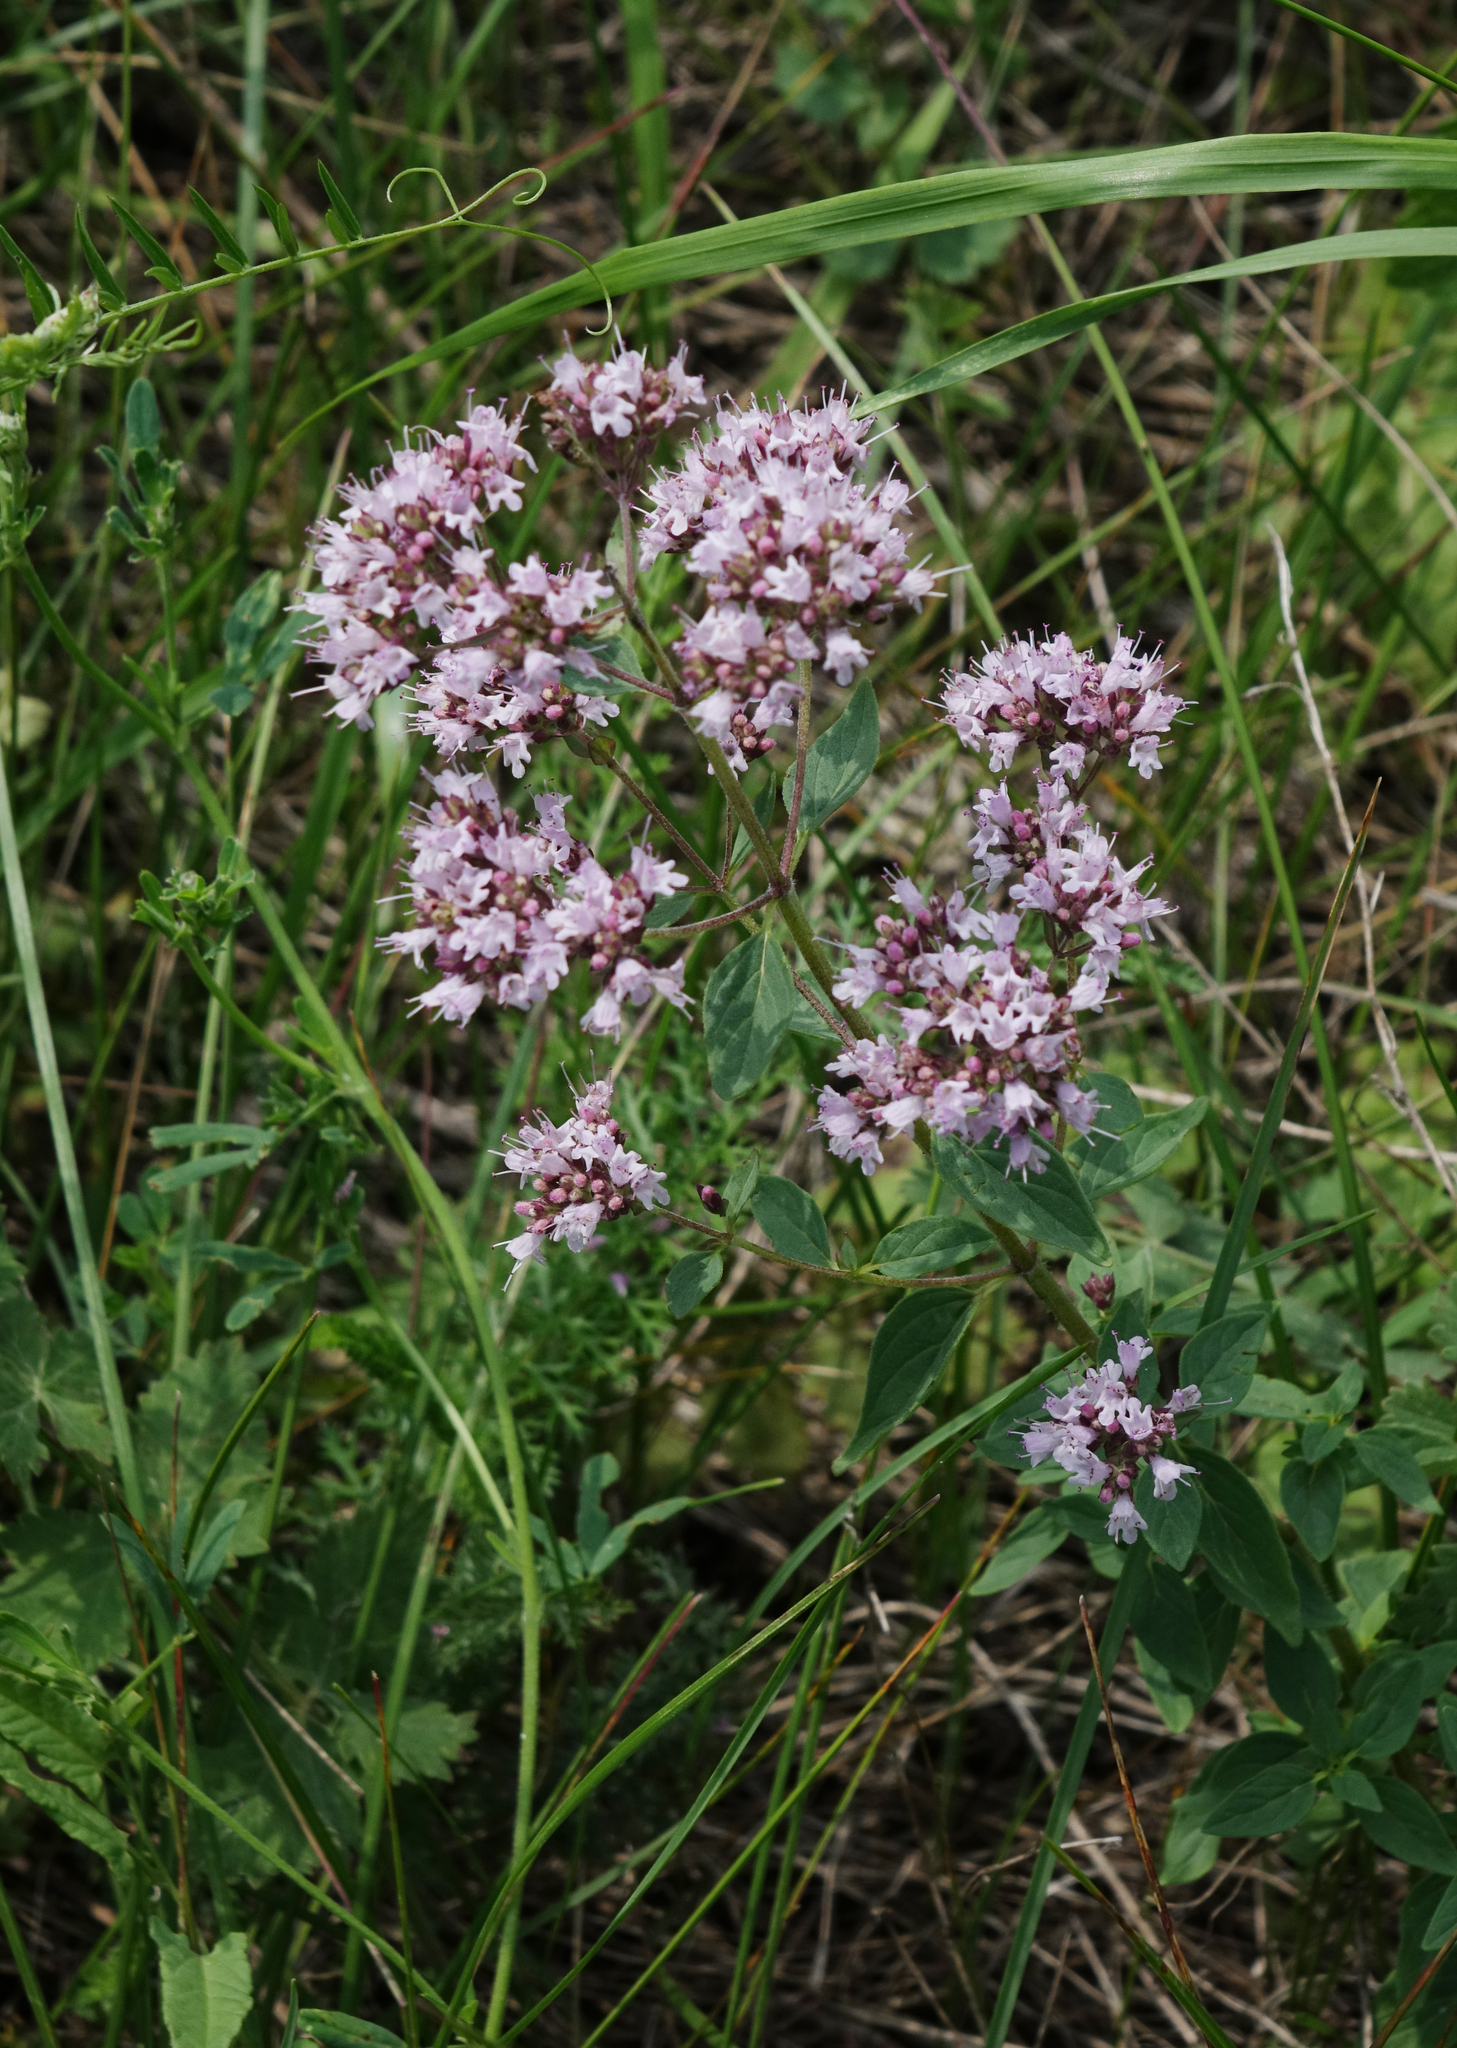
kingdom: Plantae
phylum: Tracheophyta
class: Magnoliopsida
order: Lamiales
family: Lamiaceae
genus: Origanum
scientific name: Origanum vulgare
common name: Wild marjoram
